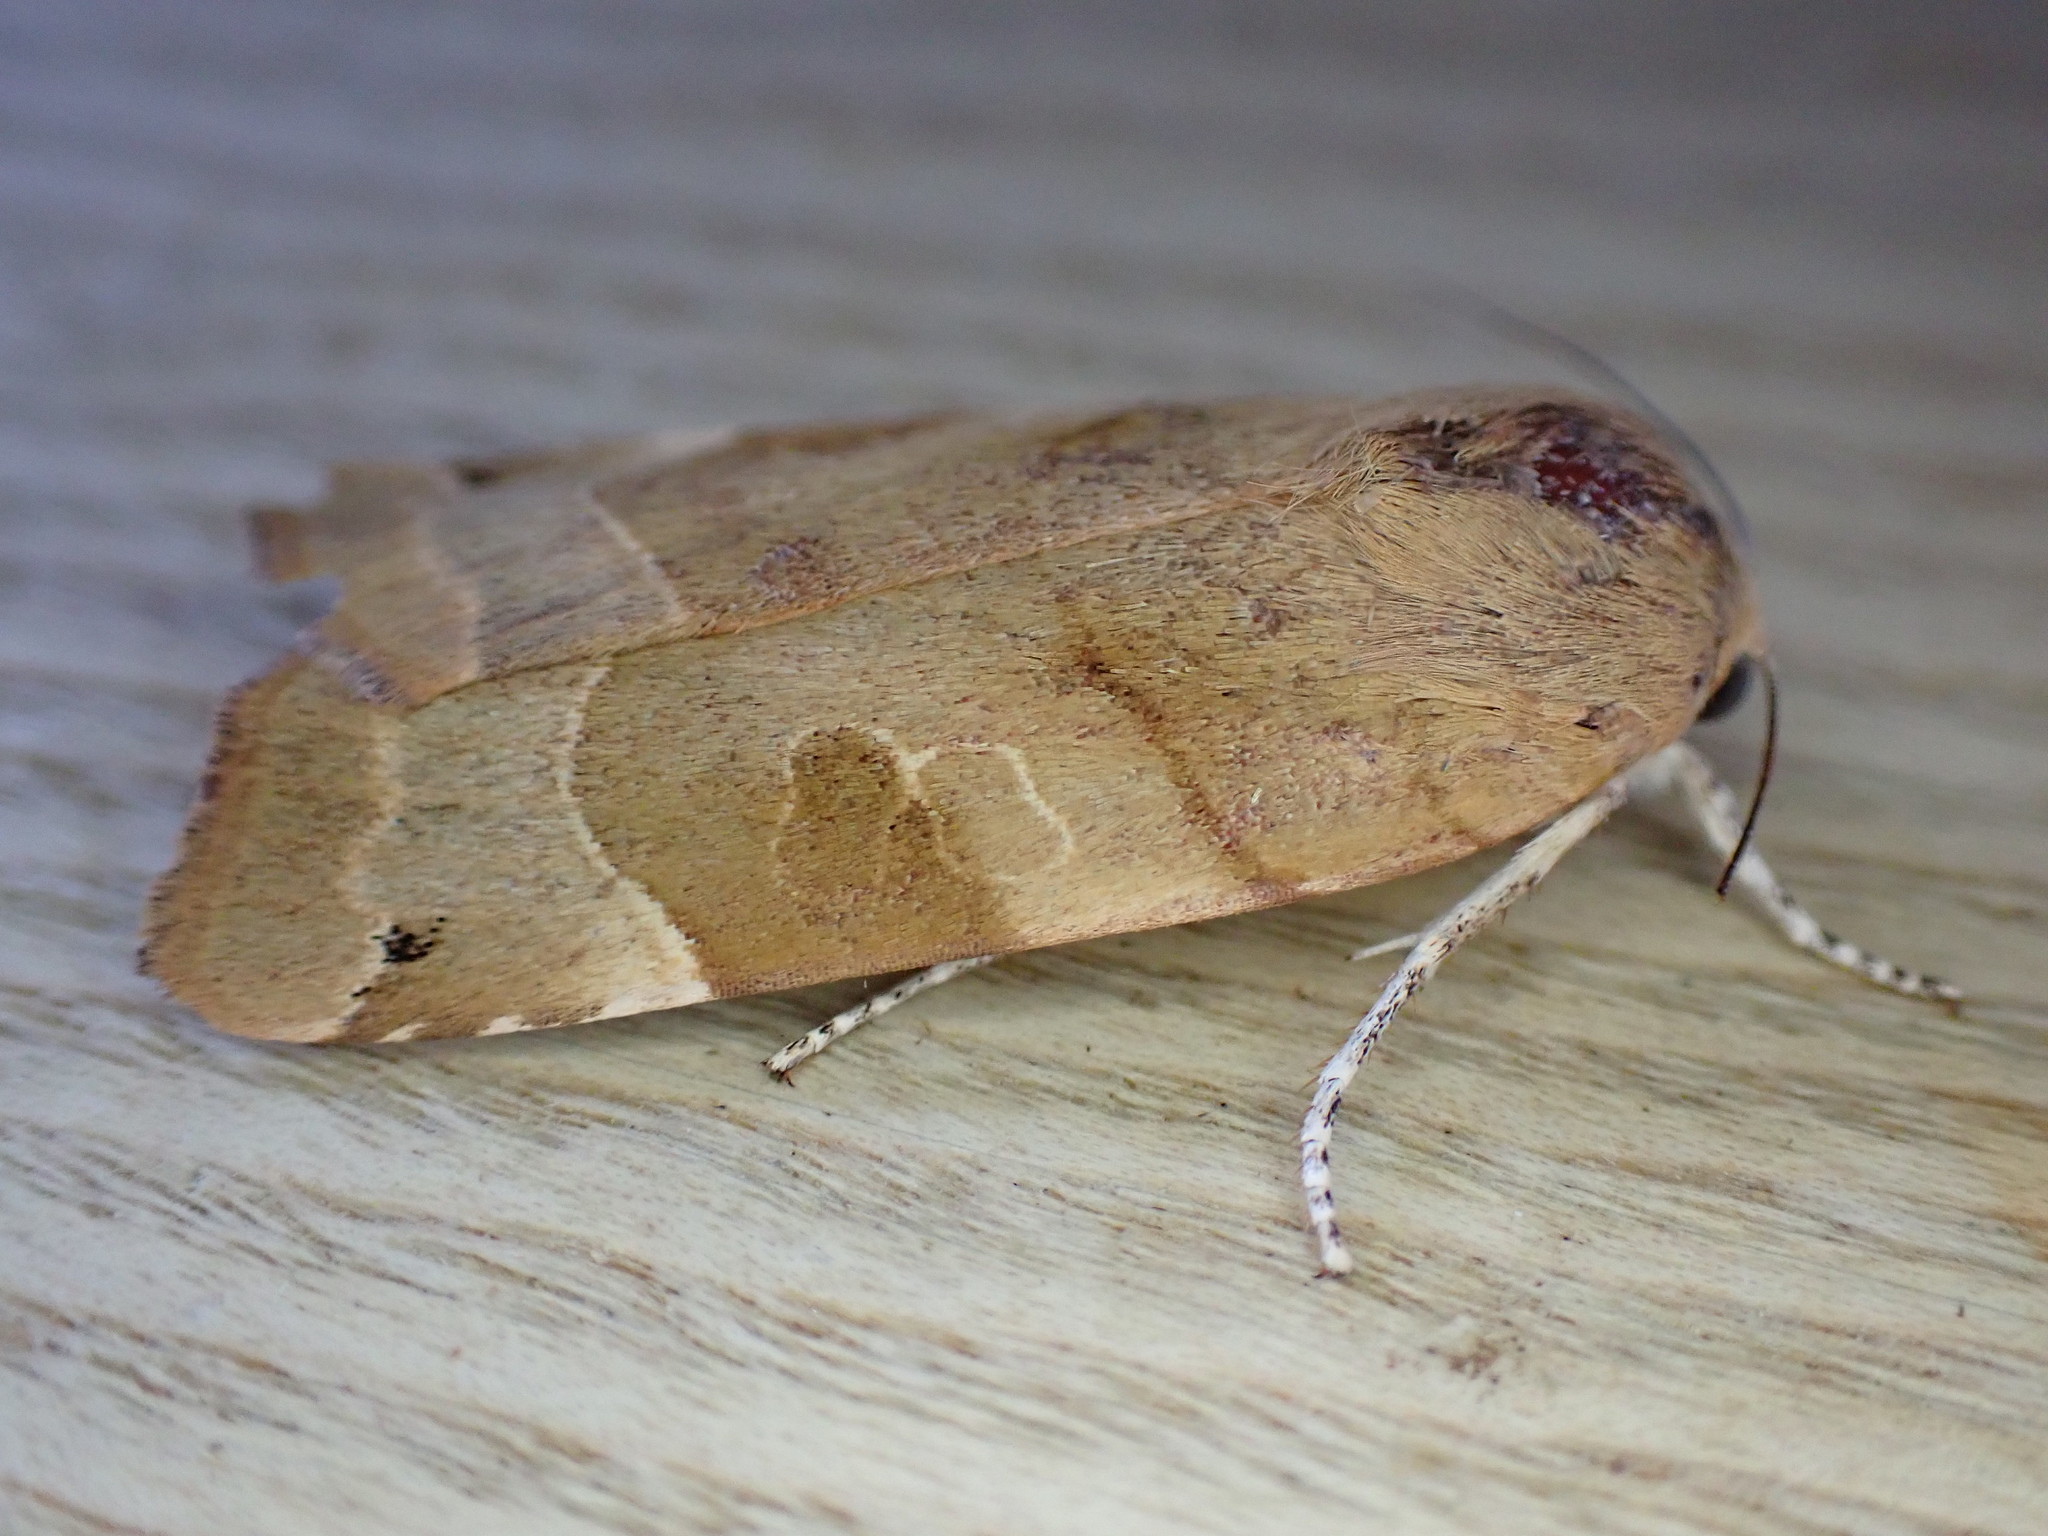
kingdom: Animalia
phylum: Arthropoda
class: Insecta
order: Lepidoptera
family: Noctuidae
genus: Noctua
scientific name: Noctua fimbriata
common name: Broad-bordered yellow underwing
